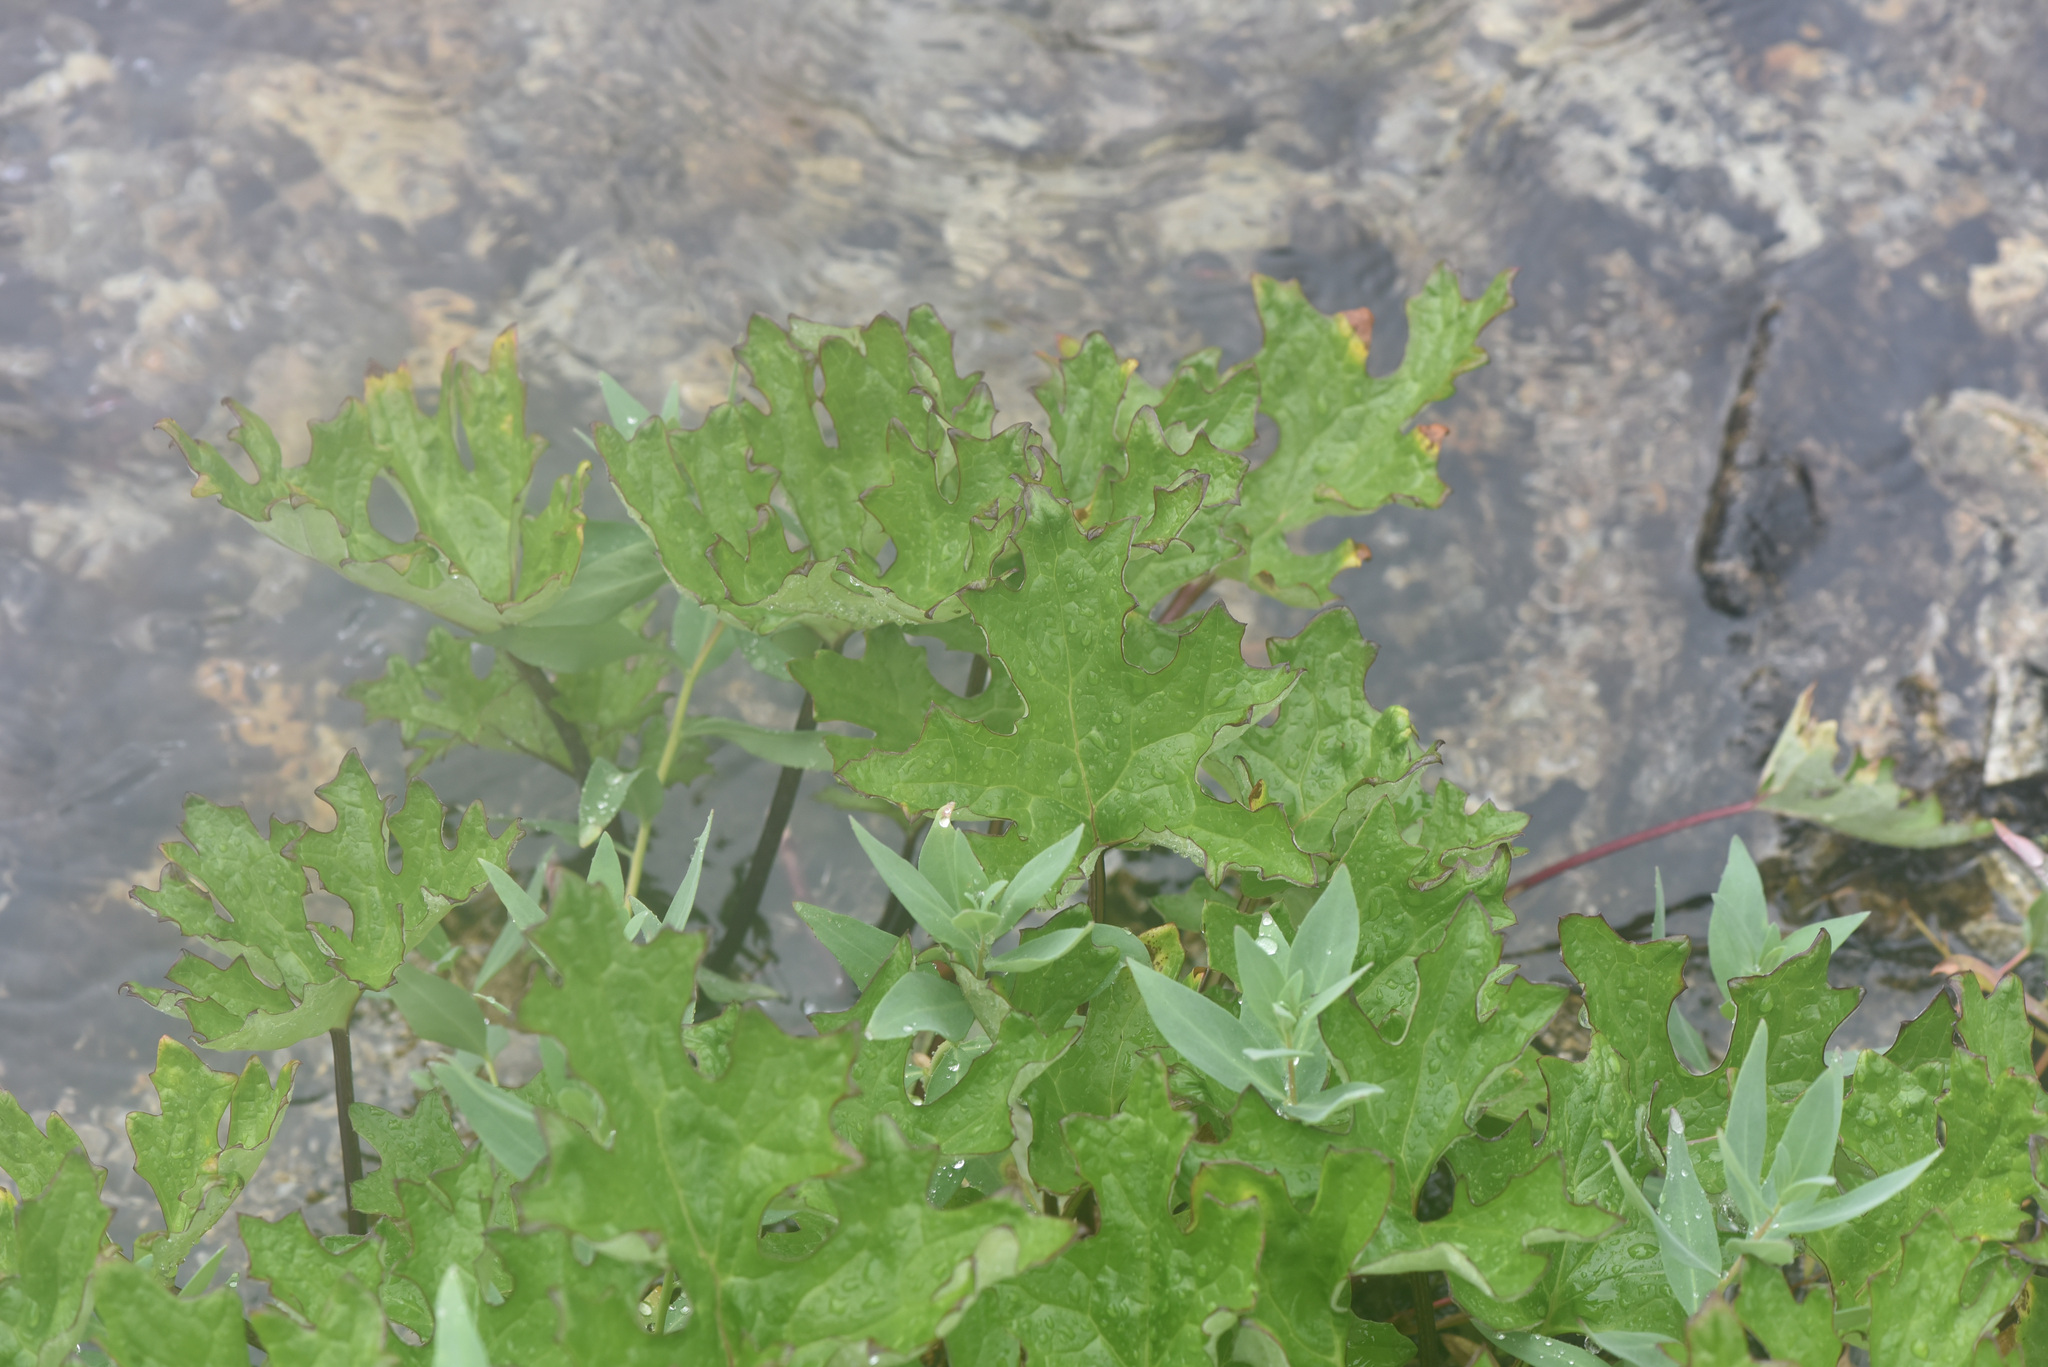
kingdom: Plantae
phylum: Tracheophyta
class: Magnoliopsida
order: Asterales
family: Asteraceae
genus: Petasites
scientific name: Petasites frigidus
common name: Arctic butterbur
